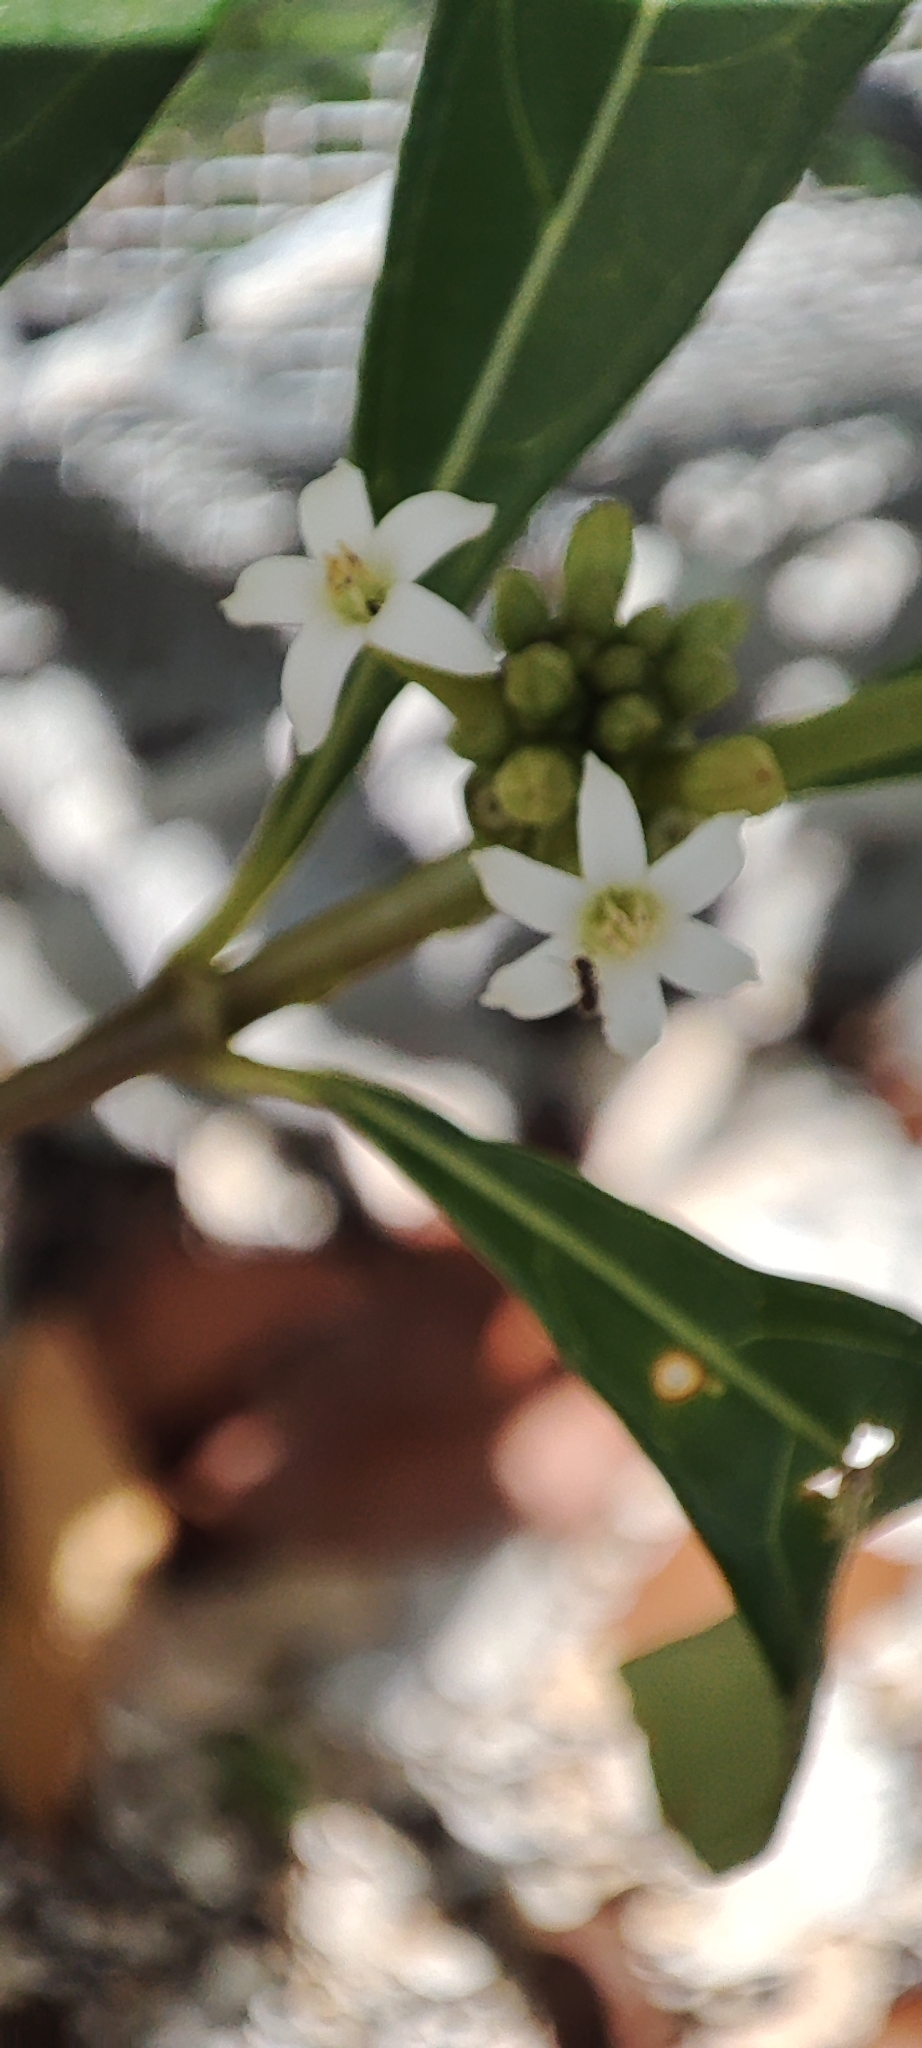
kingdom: Plantae
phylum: Tracheophyta
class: Magnoliopsida
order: Gentianales
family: Rubiaceae
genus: Morinda
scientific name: Morinda royoc
